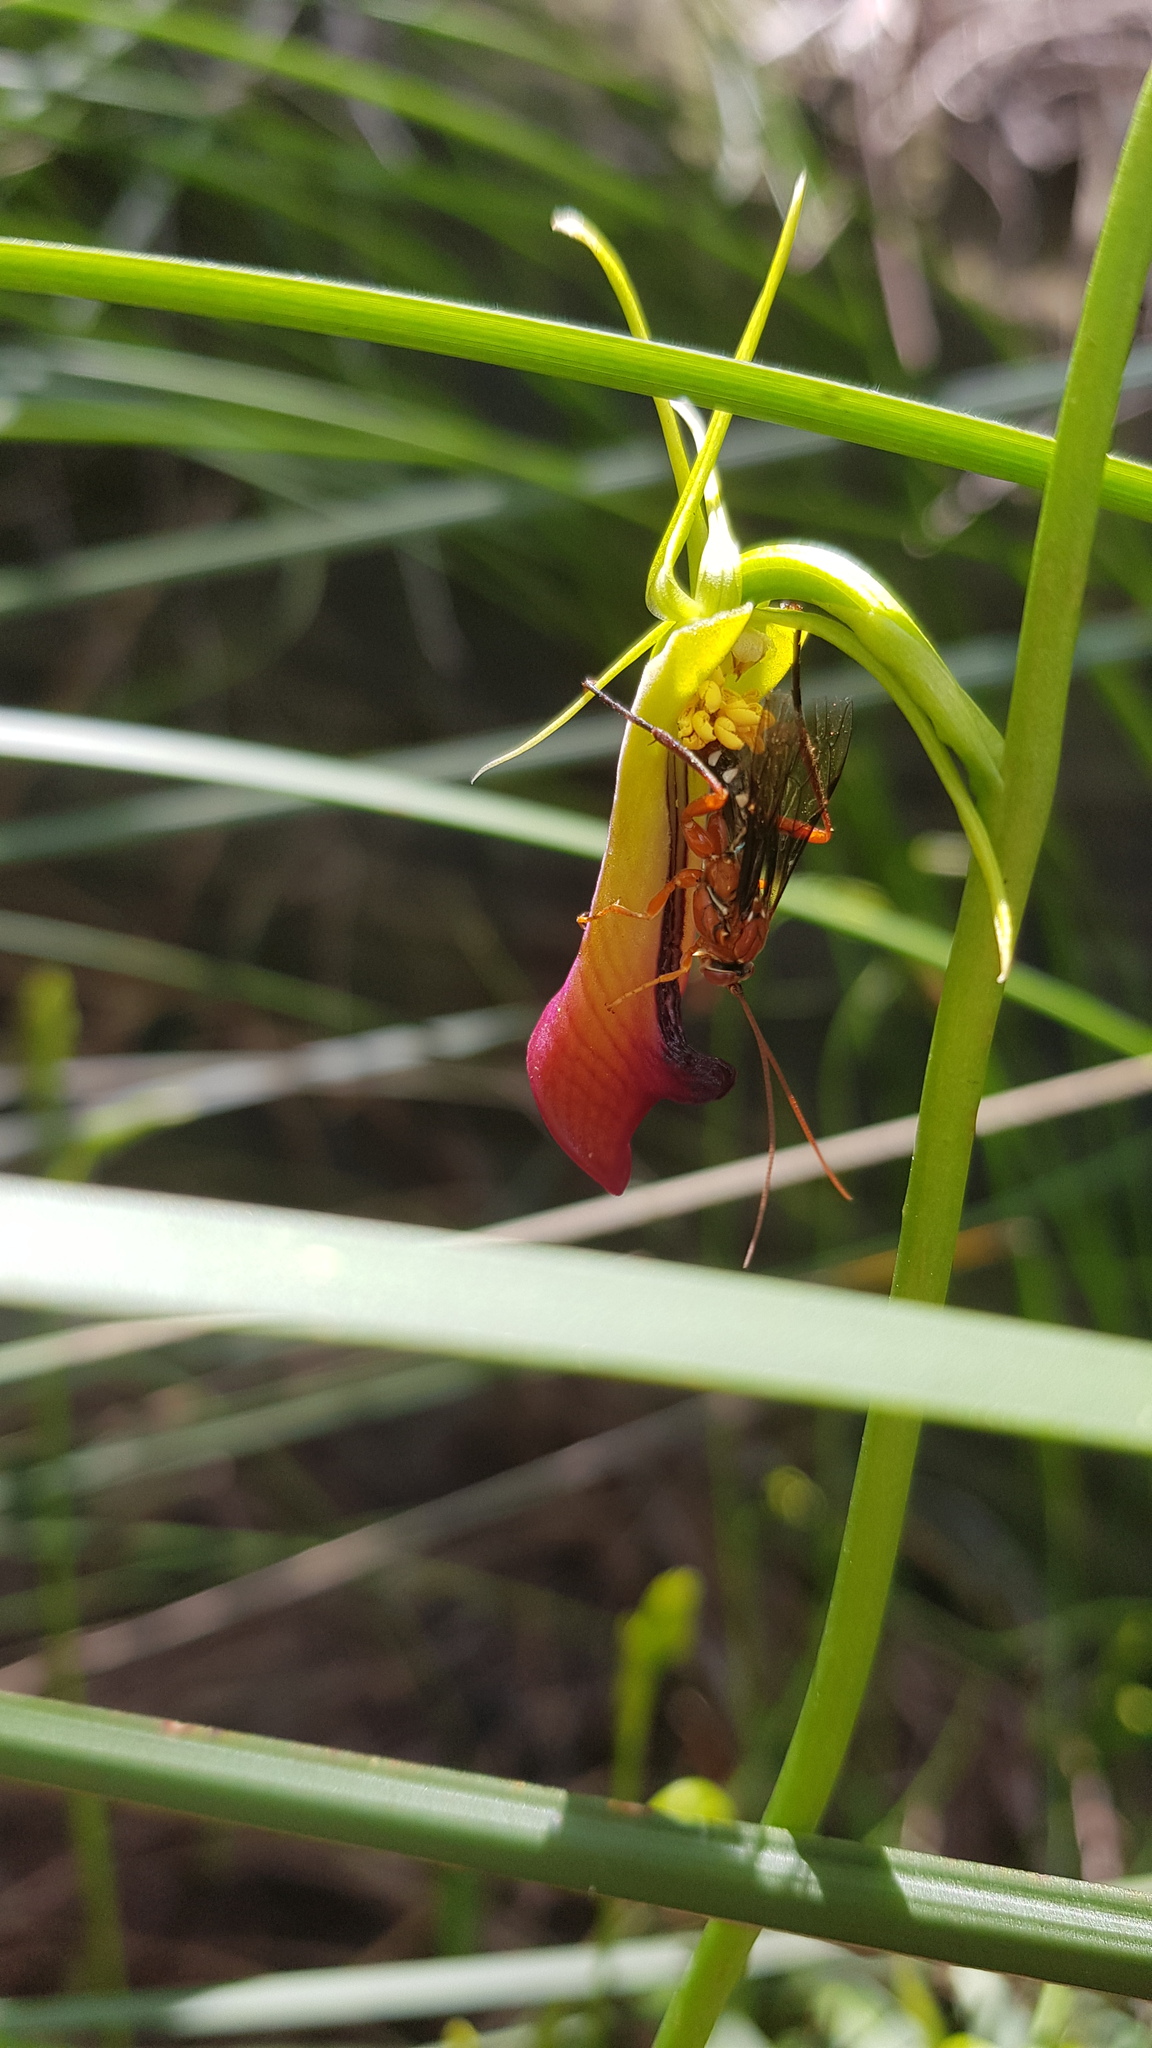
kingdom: Animalia
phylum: Arthropoda
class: Insecta
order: Hymenoptera
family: Ichneumonidae
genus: Lissopimpla
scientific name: Lissopimpla excelsa
